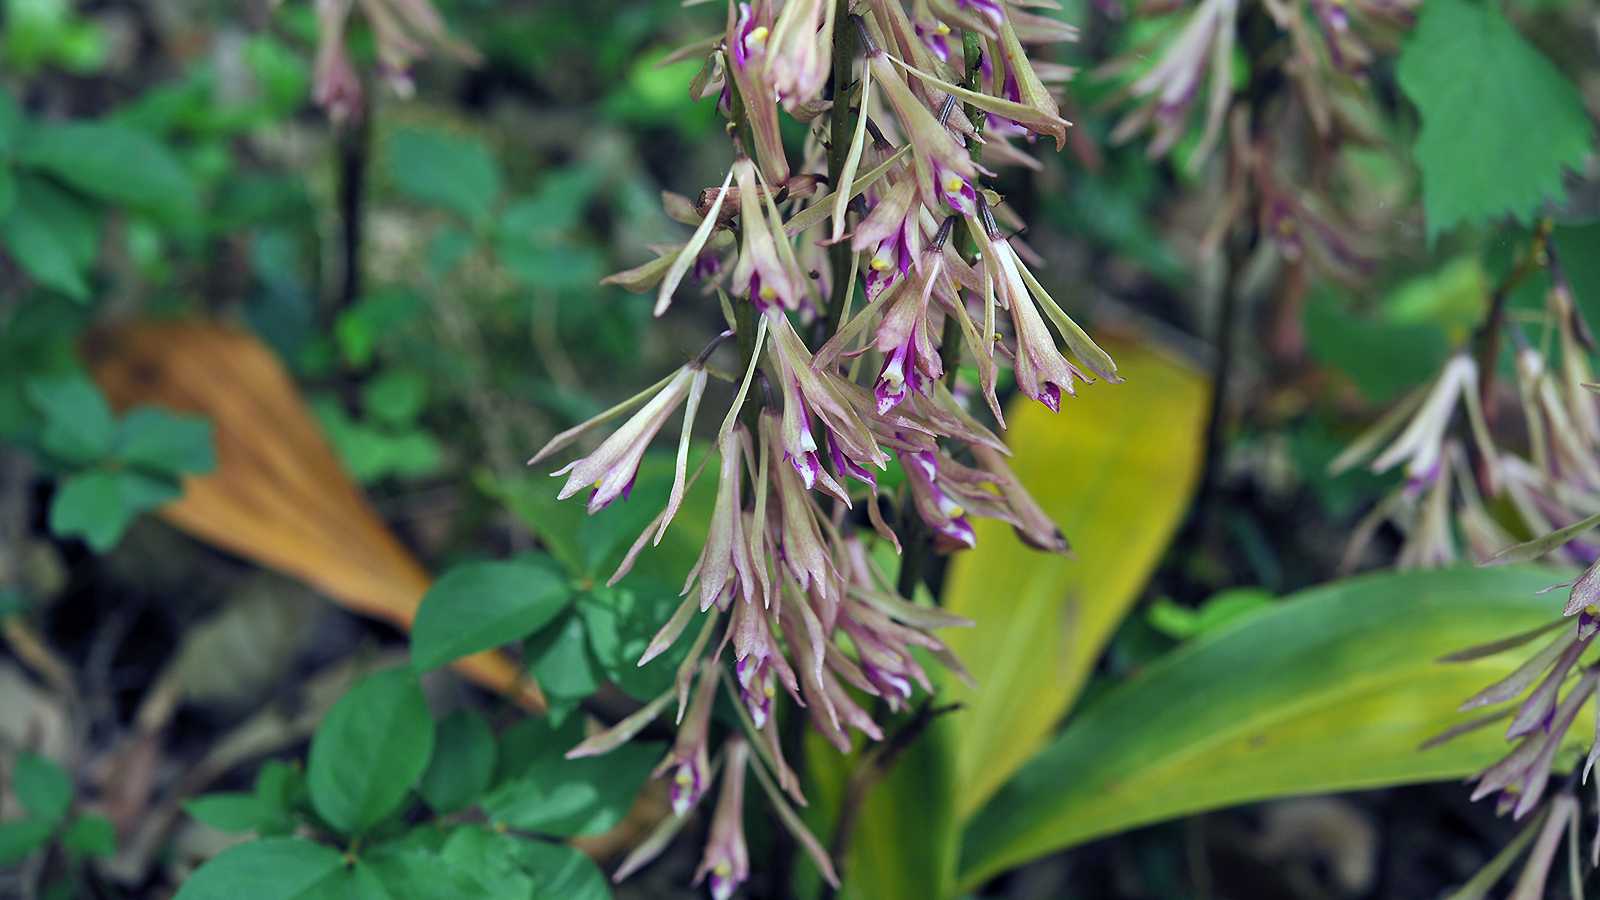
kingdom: Plantae
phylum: Tracheophyta
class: Liliopsida
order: Asparagales
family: Orchidaceae
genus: Cremastra
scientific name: Cremastra appendiculata
